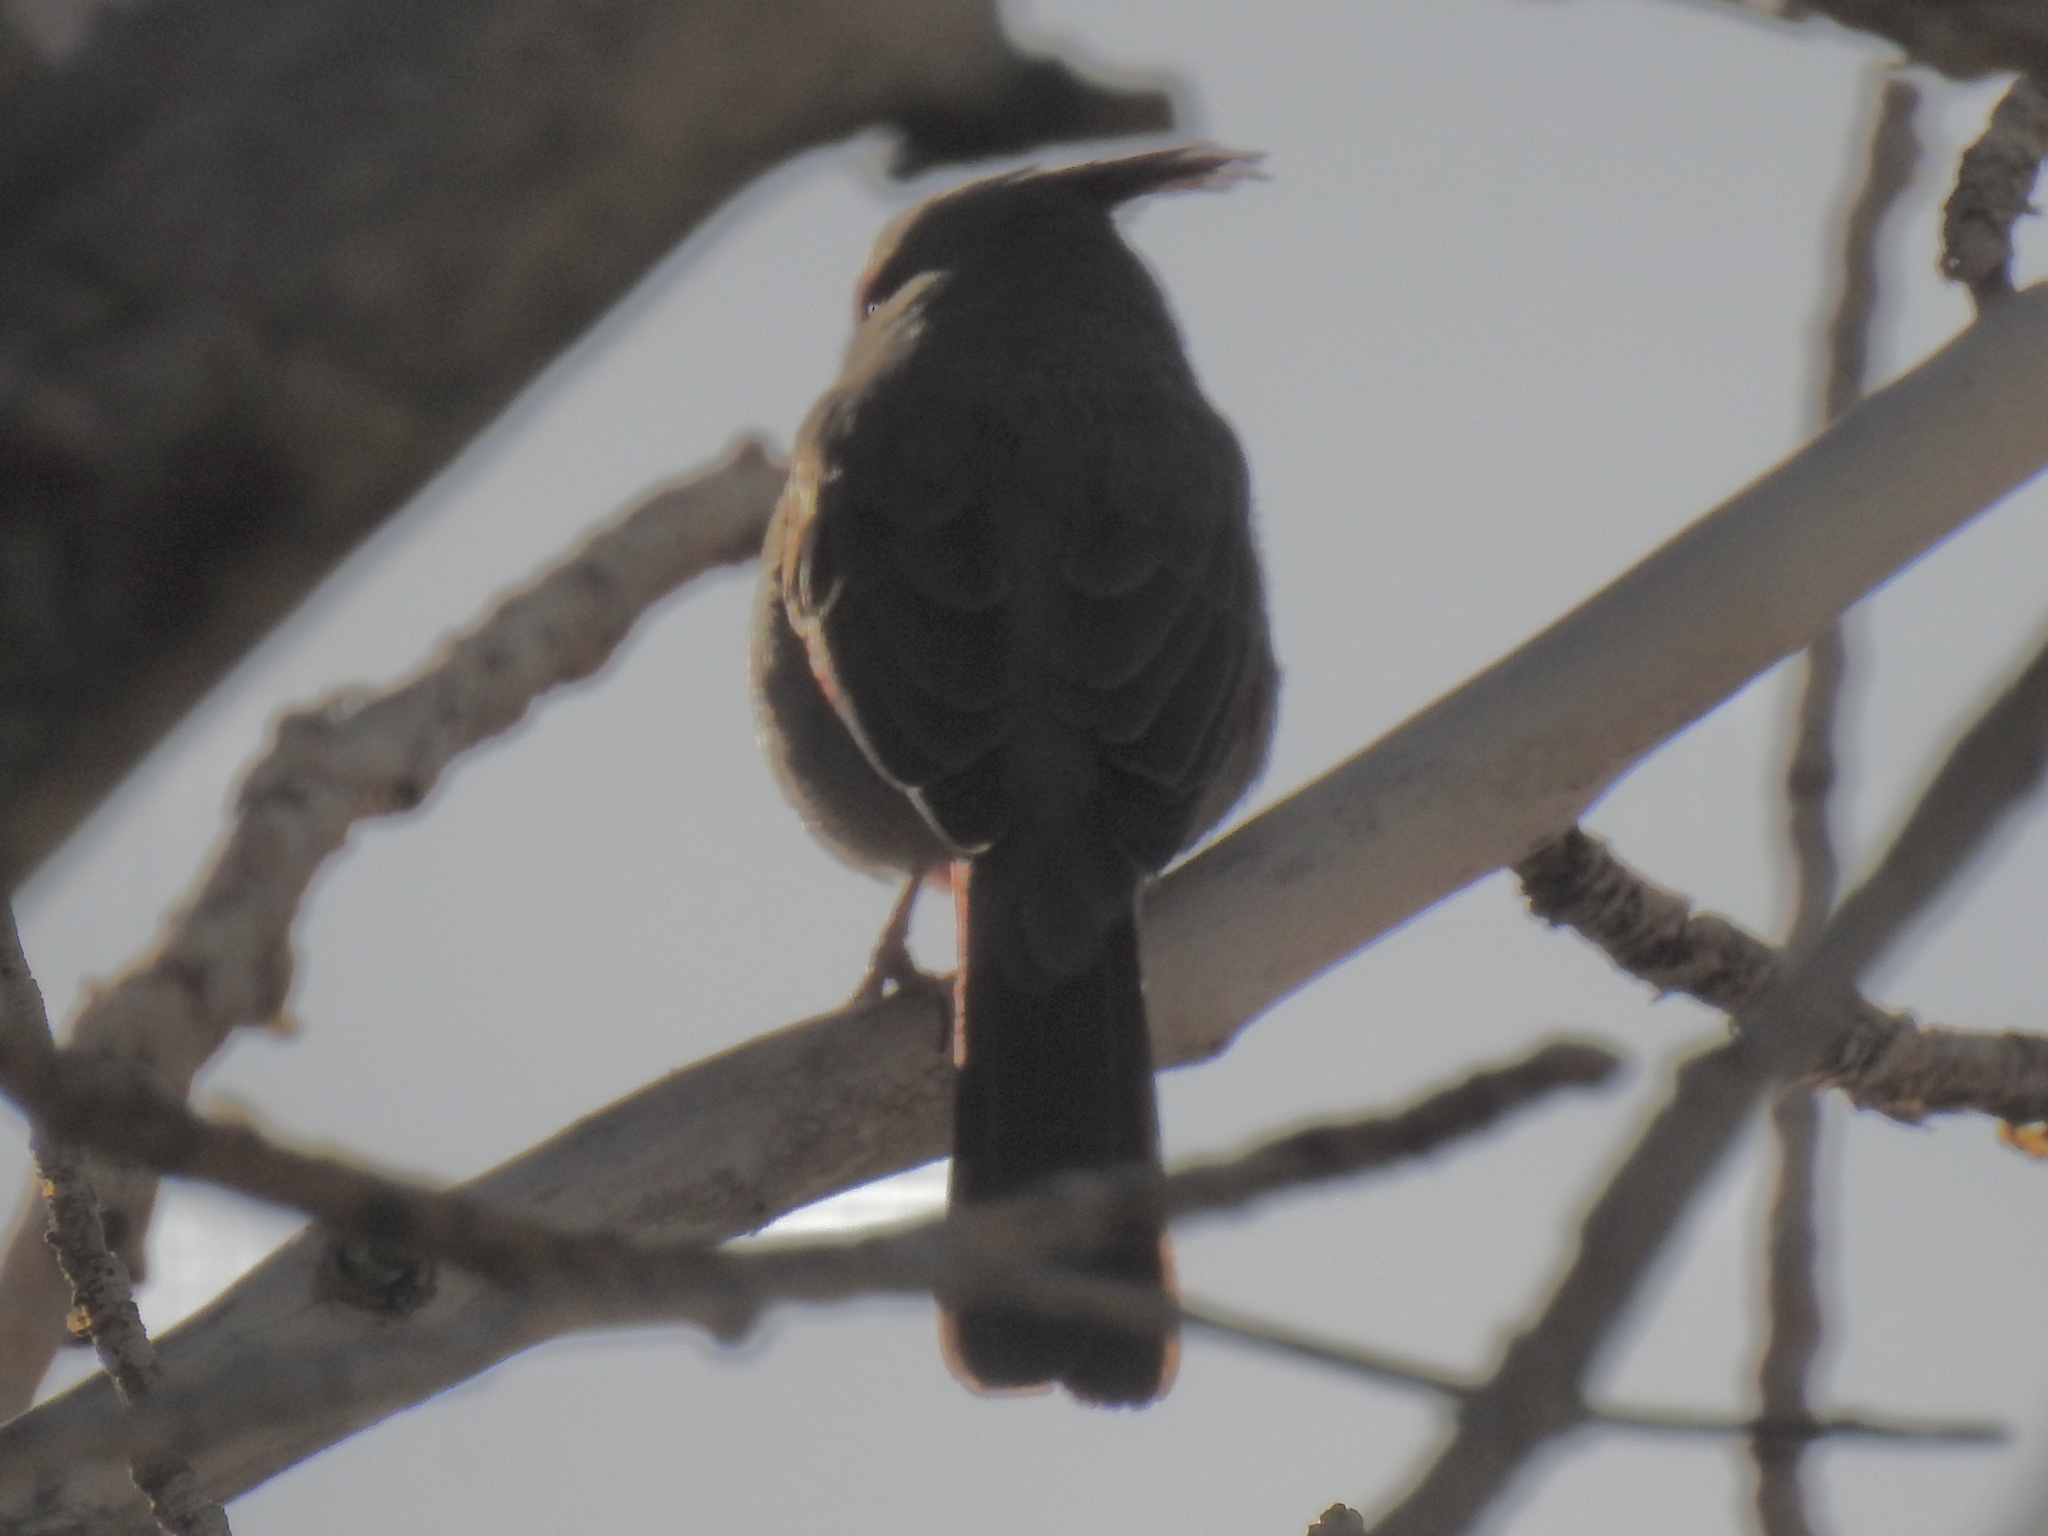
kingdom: Animalia
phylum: Chordata
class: Aves
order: Passeriformes
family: Cardinalidae
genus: Cardinalis
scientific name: Cardinalis sinuatus
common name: Pyrrhuloxia
